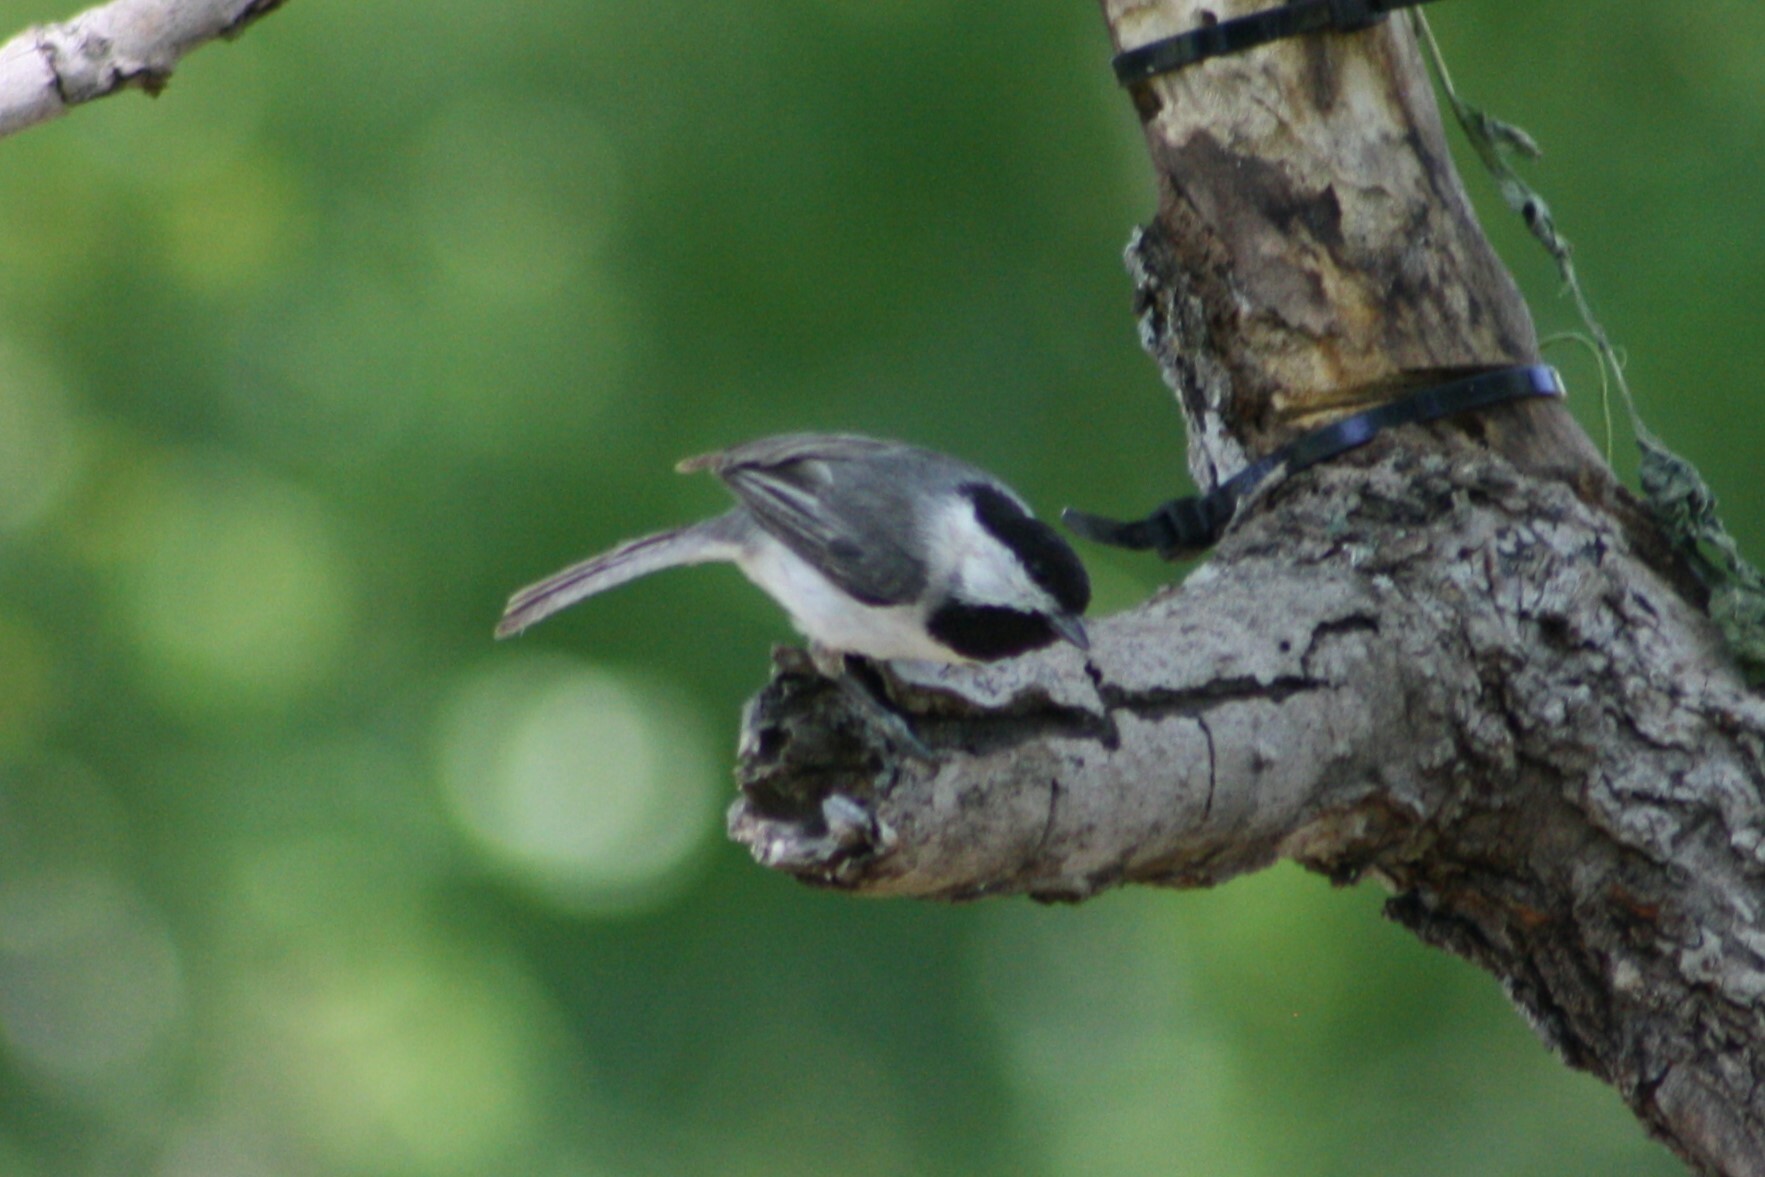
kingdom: Animalia
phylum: Chordata
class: Aves
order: Passeriformes
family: Paridae
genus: Poecile
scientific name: Poecile carolinensis
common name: Carolina chickadee
